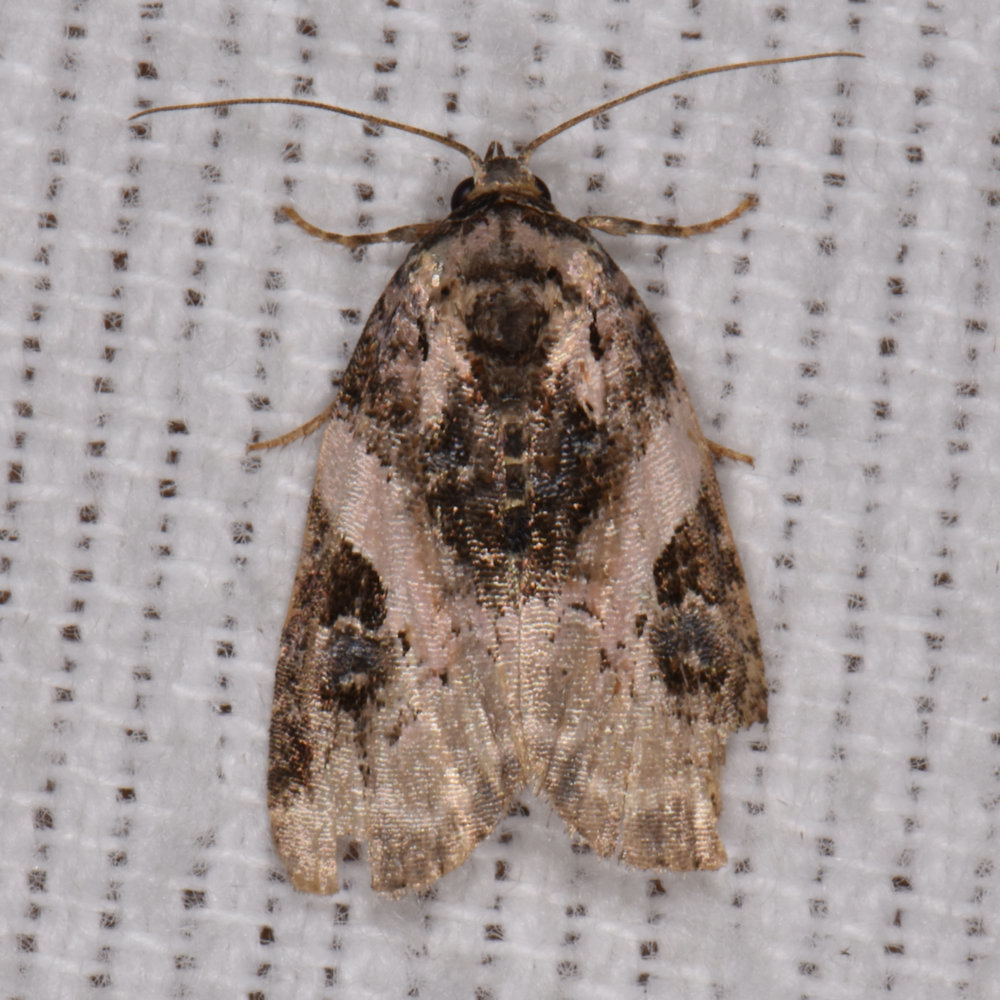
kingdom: Animalia
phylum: Arthropoda
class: Insecta
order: Lepidoptera
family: Noctuidae
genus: Pseudeustrotia
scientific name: Pseudeustrotia carneola
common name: Pink-barred lithacodia moth
